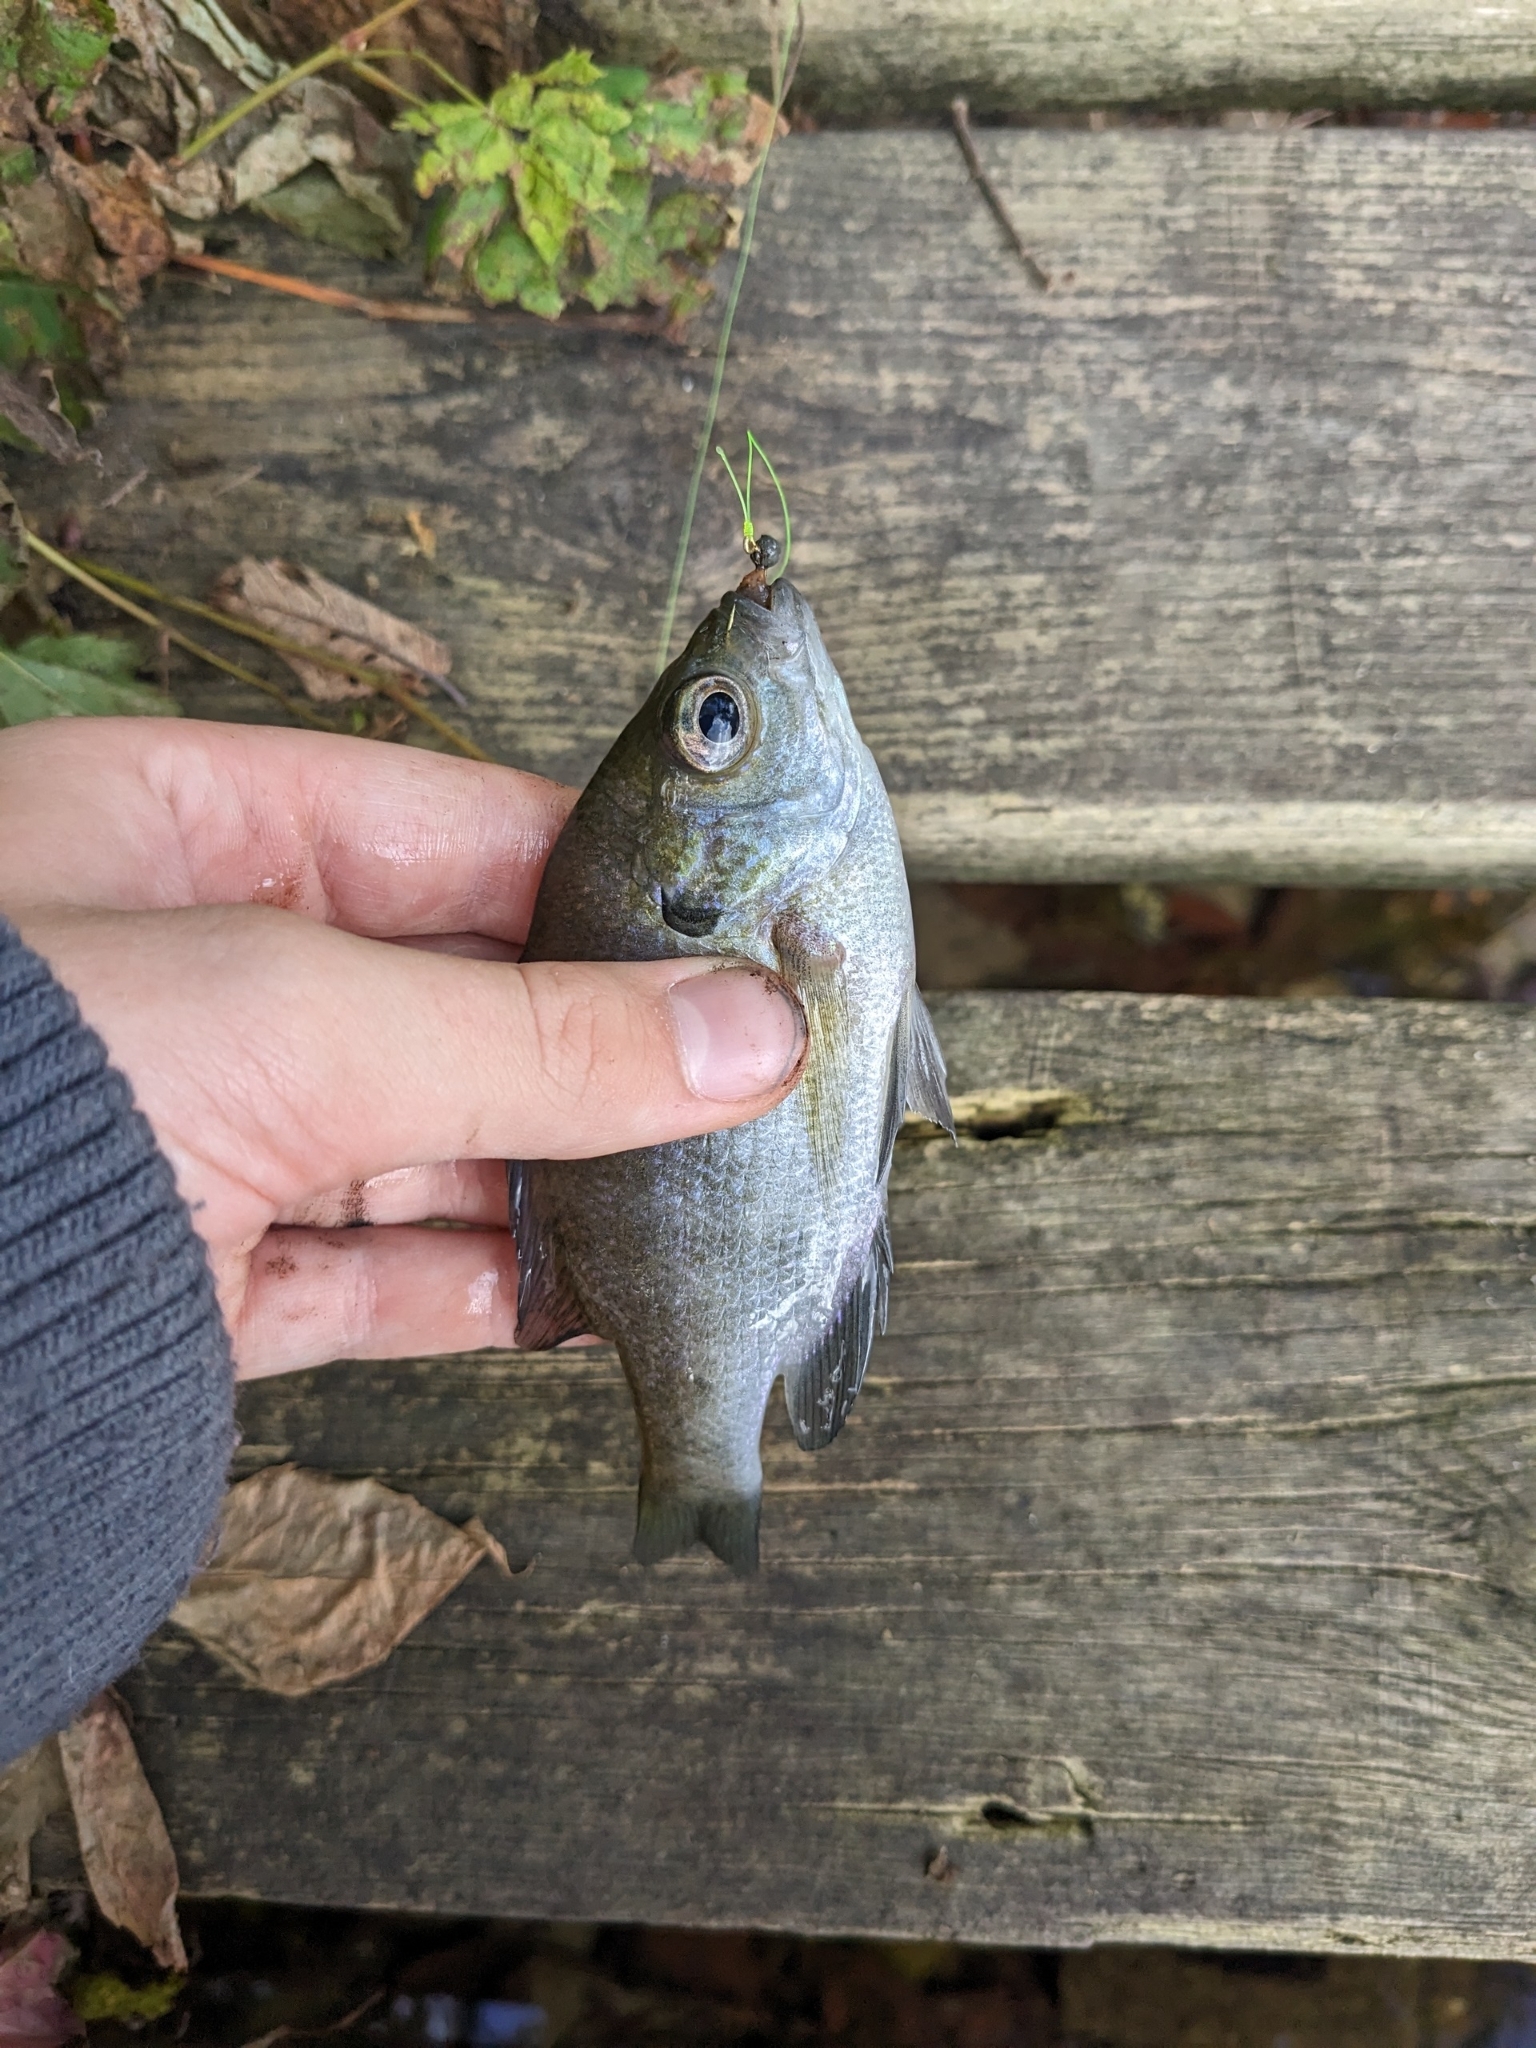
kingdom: Animalia
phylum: Chordata
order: Perciformes
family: Centrarchidae
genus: Lepomis
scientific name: Lepomis macrochirus
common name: Bluegill
